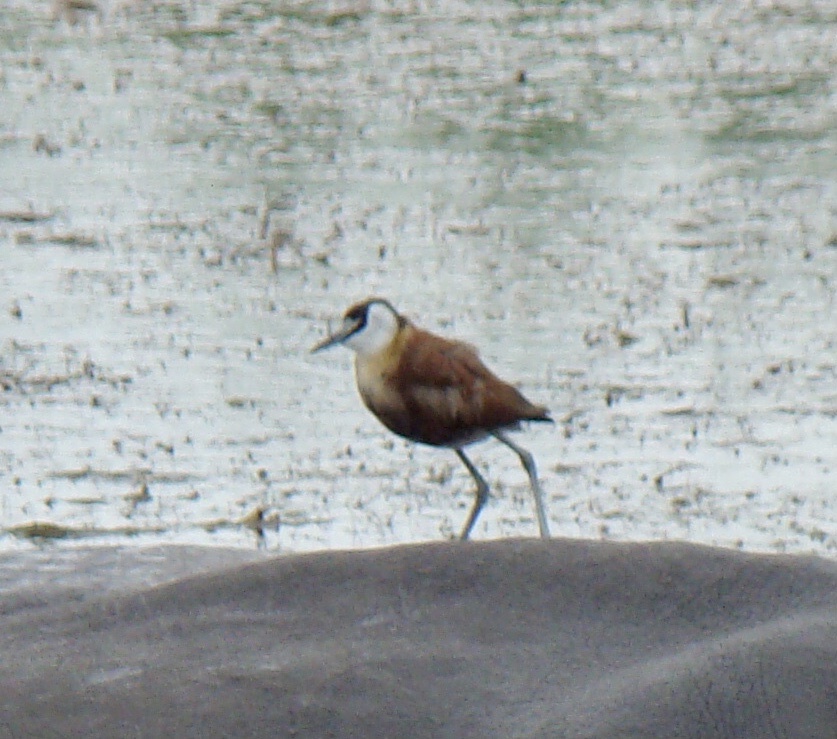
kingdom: Animalia
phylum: Chordata
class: Aves
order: Charadriiformes
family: Jacanidae
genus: Actophilornis
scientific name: Actophilornis africanus
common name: African jacana
